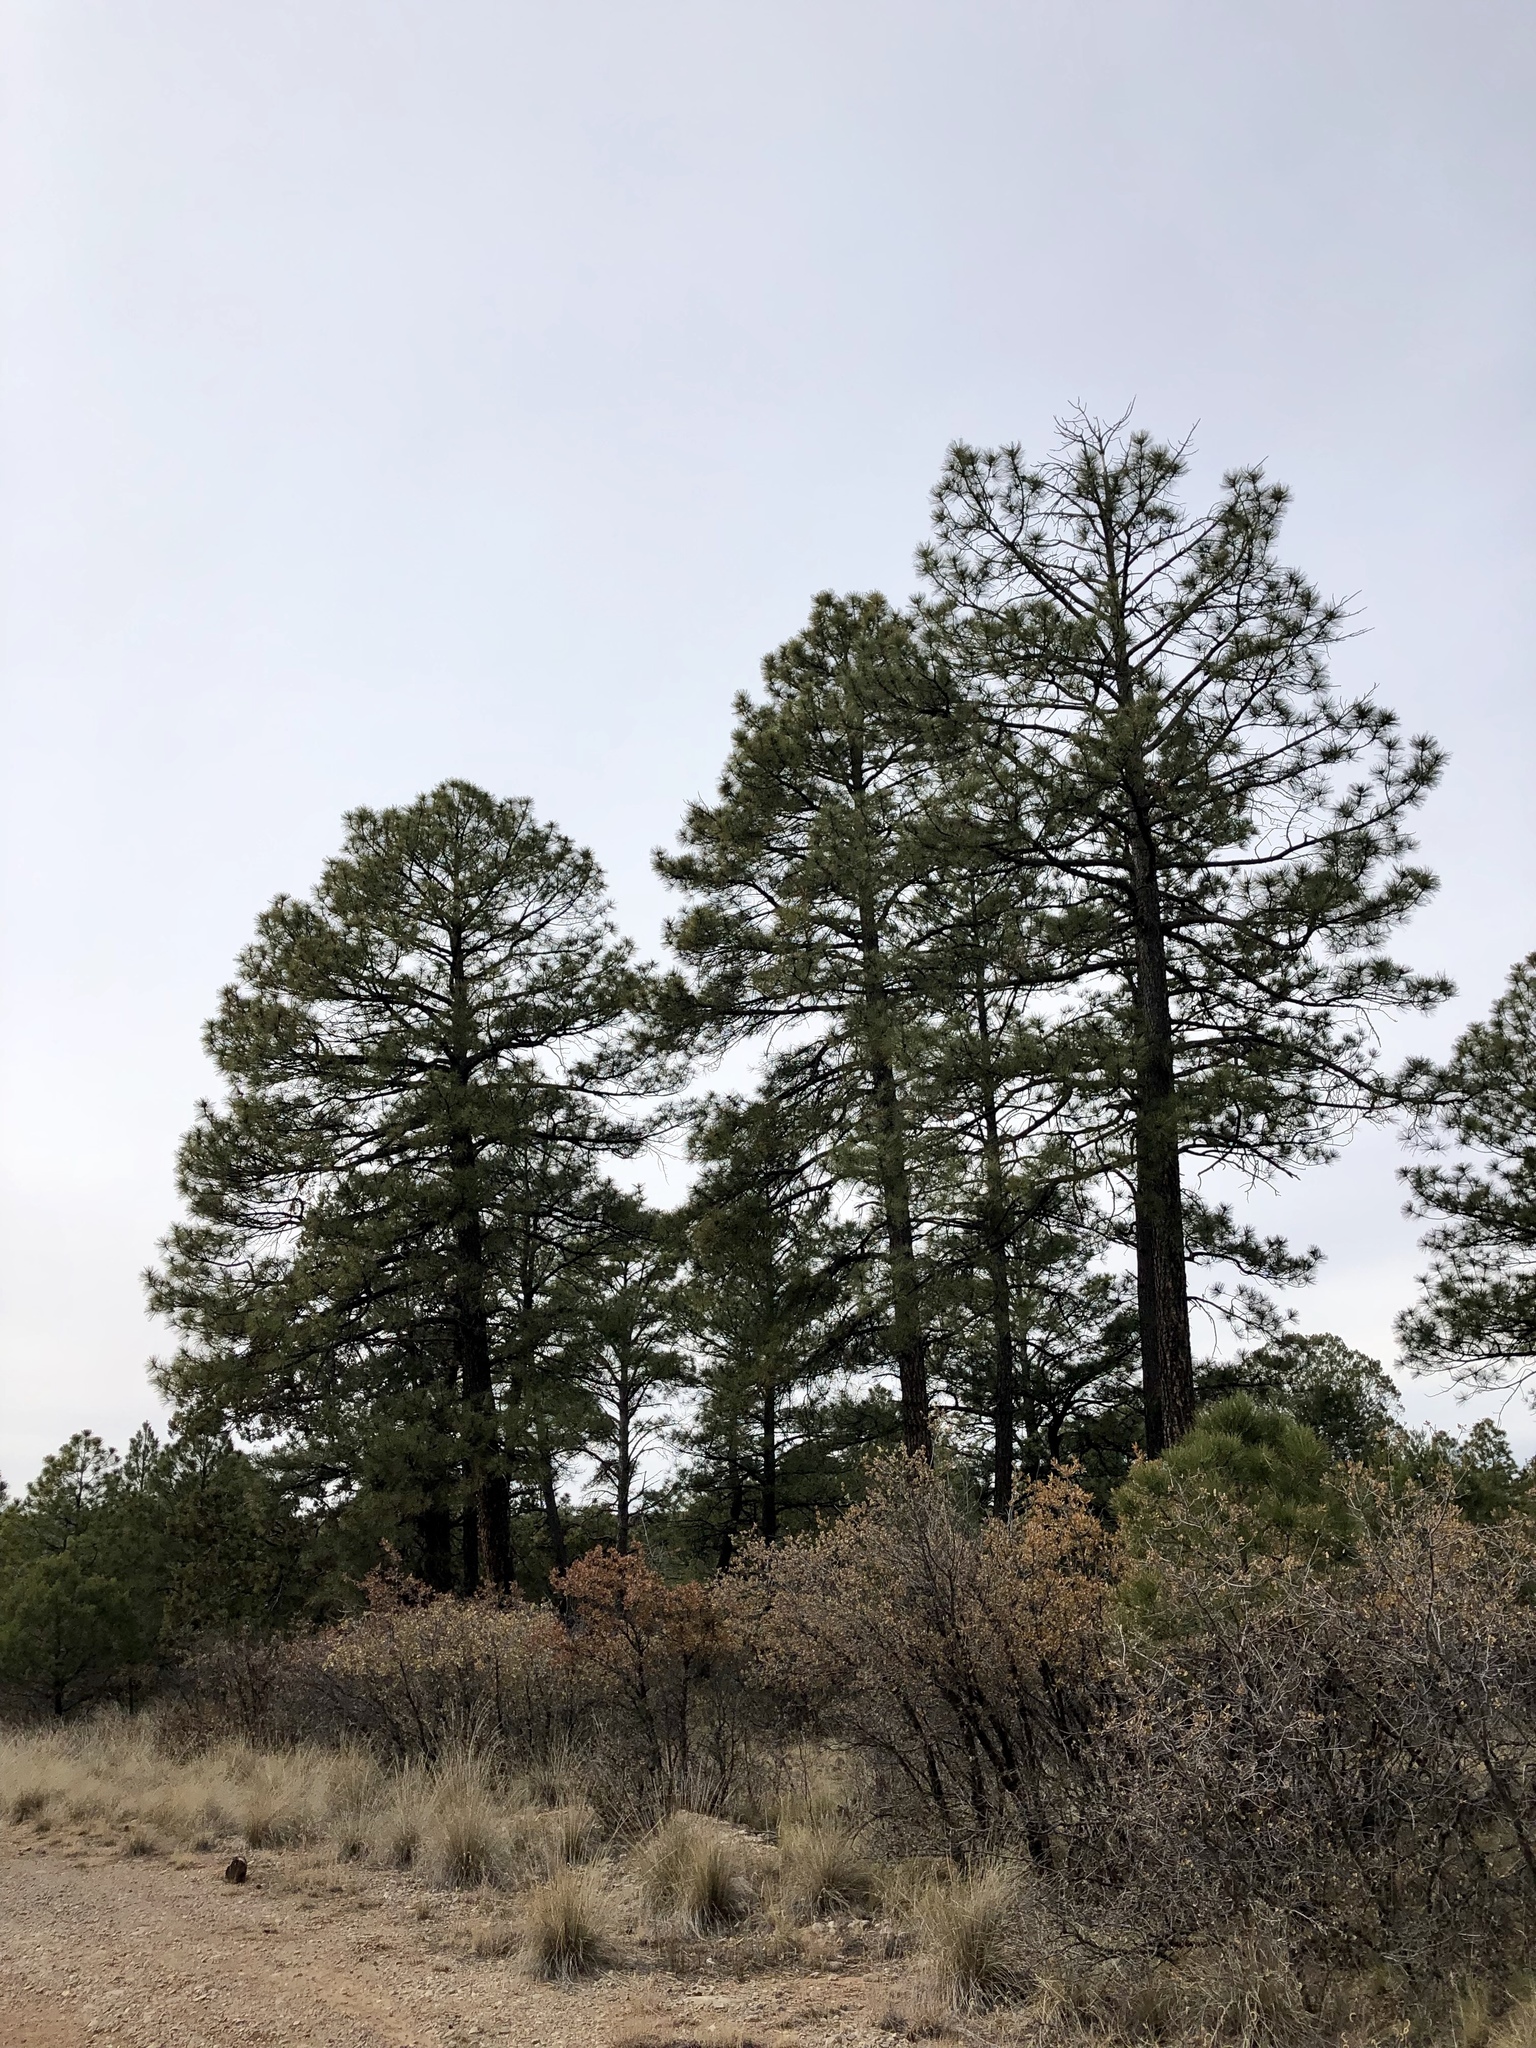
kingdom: Plantae
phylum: Tracheophyta
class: Pinopsida
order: Pinales
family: Pinaceae
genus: Pinus
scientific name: Pinus ponderosa
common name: Western yellow-pine
